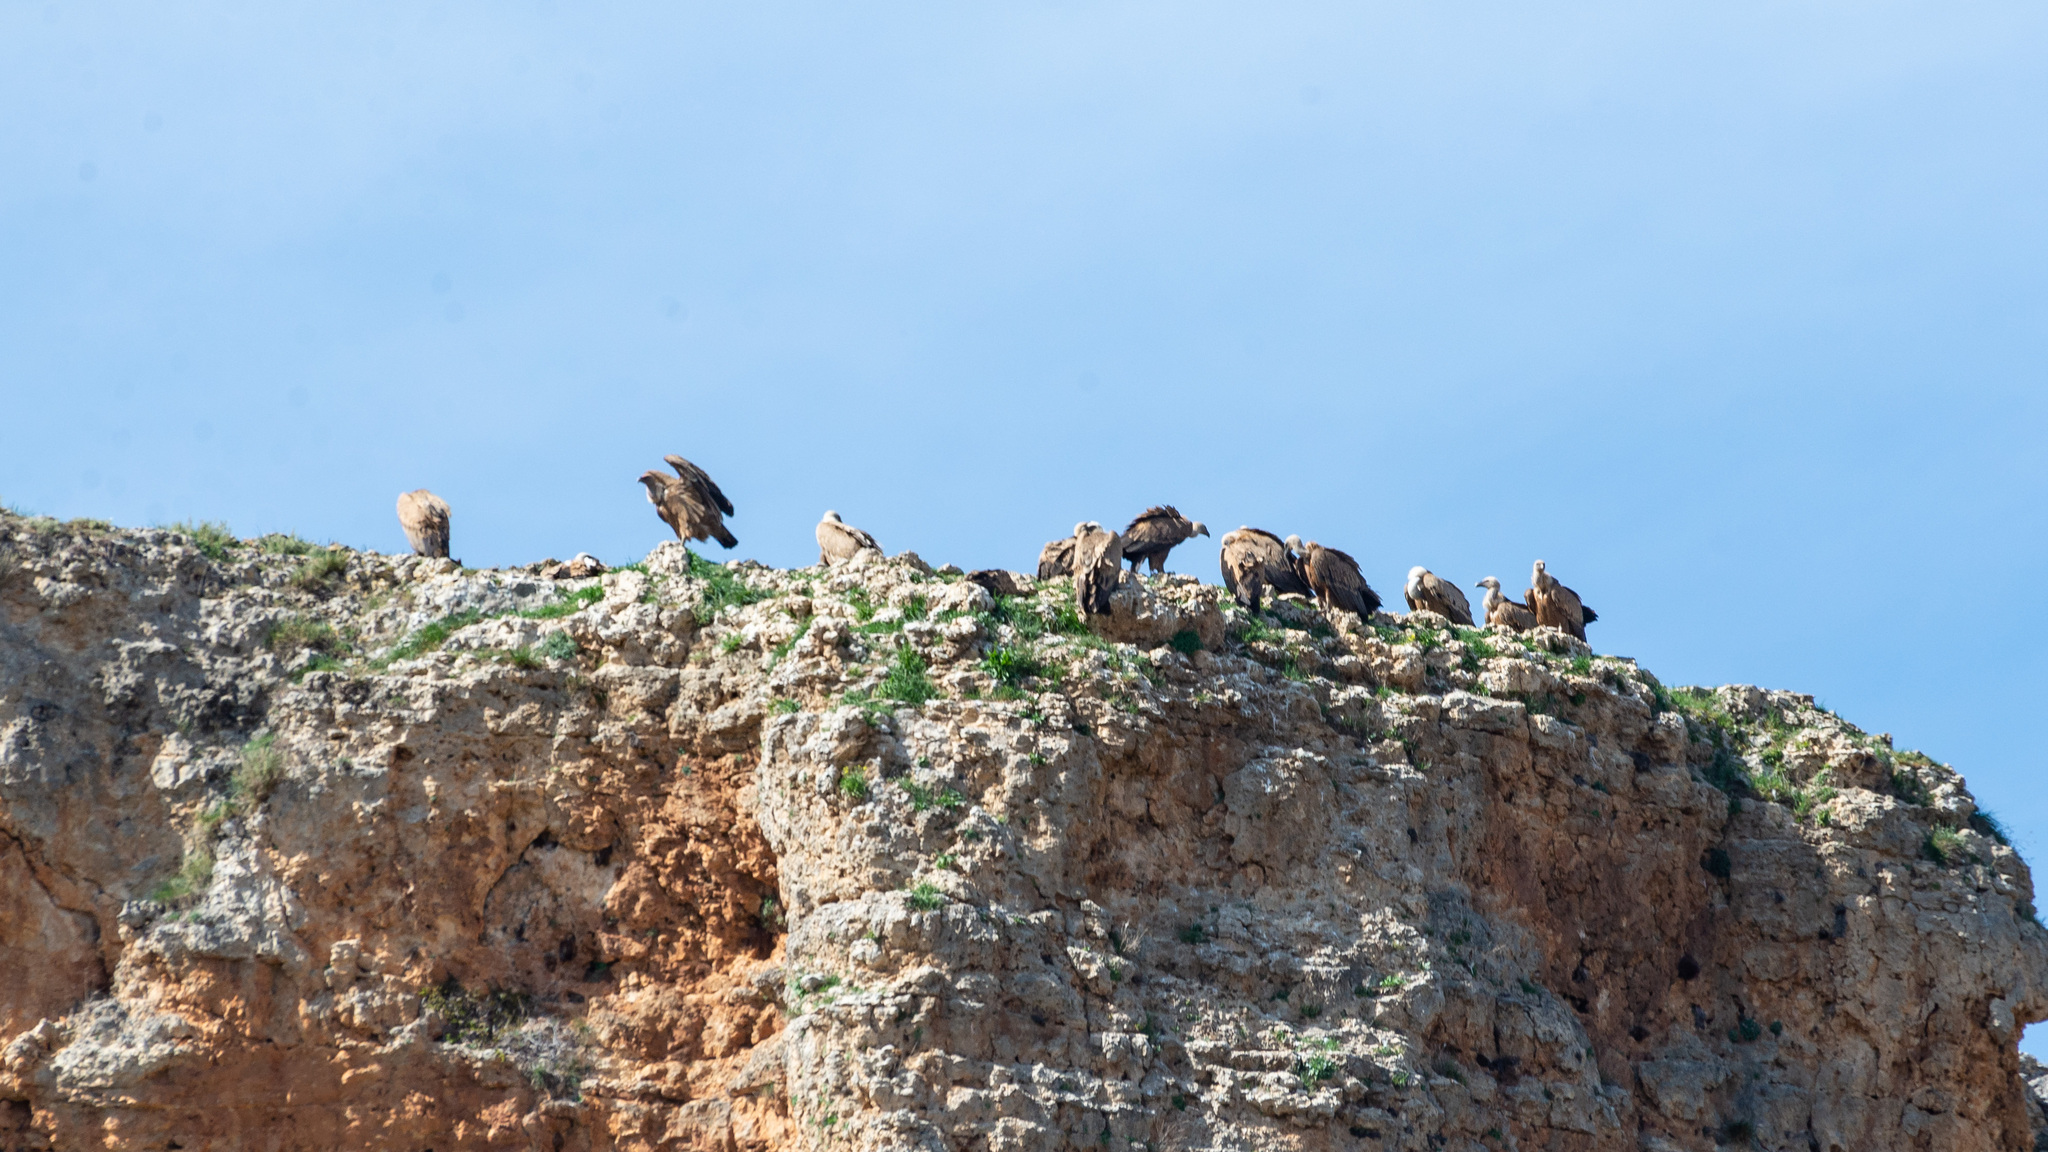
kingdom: Animalia
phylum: Chordata
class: Aves
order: Accipitriformes
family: Accipitridae
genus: Gyps
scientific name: Gyps fulvus
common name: Griffon vulture
